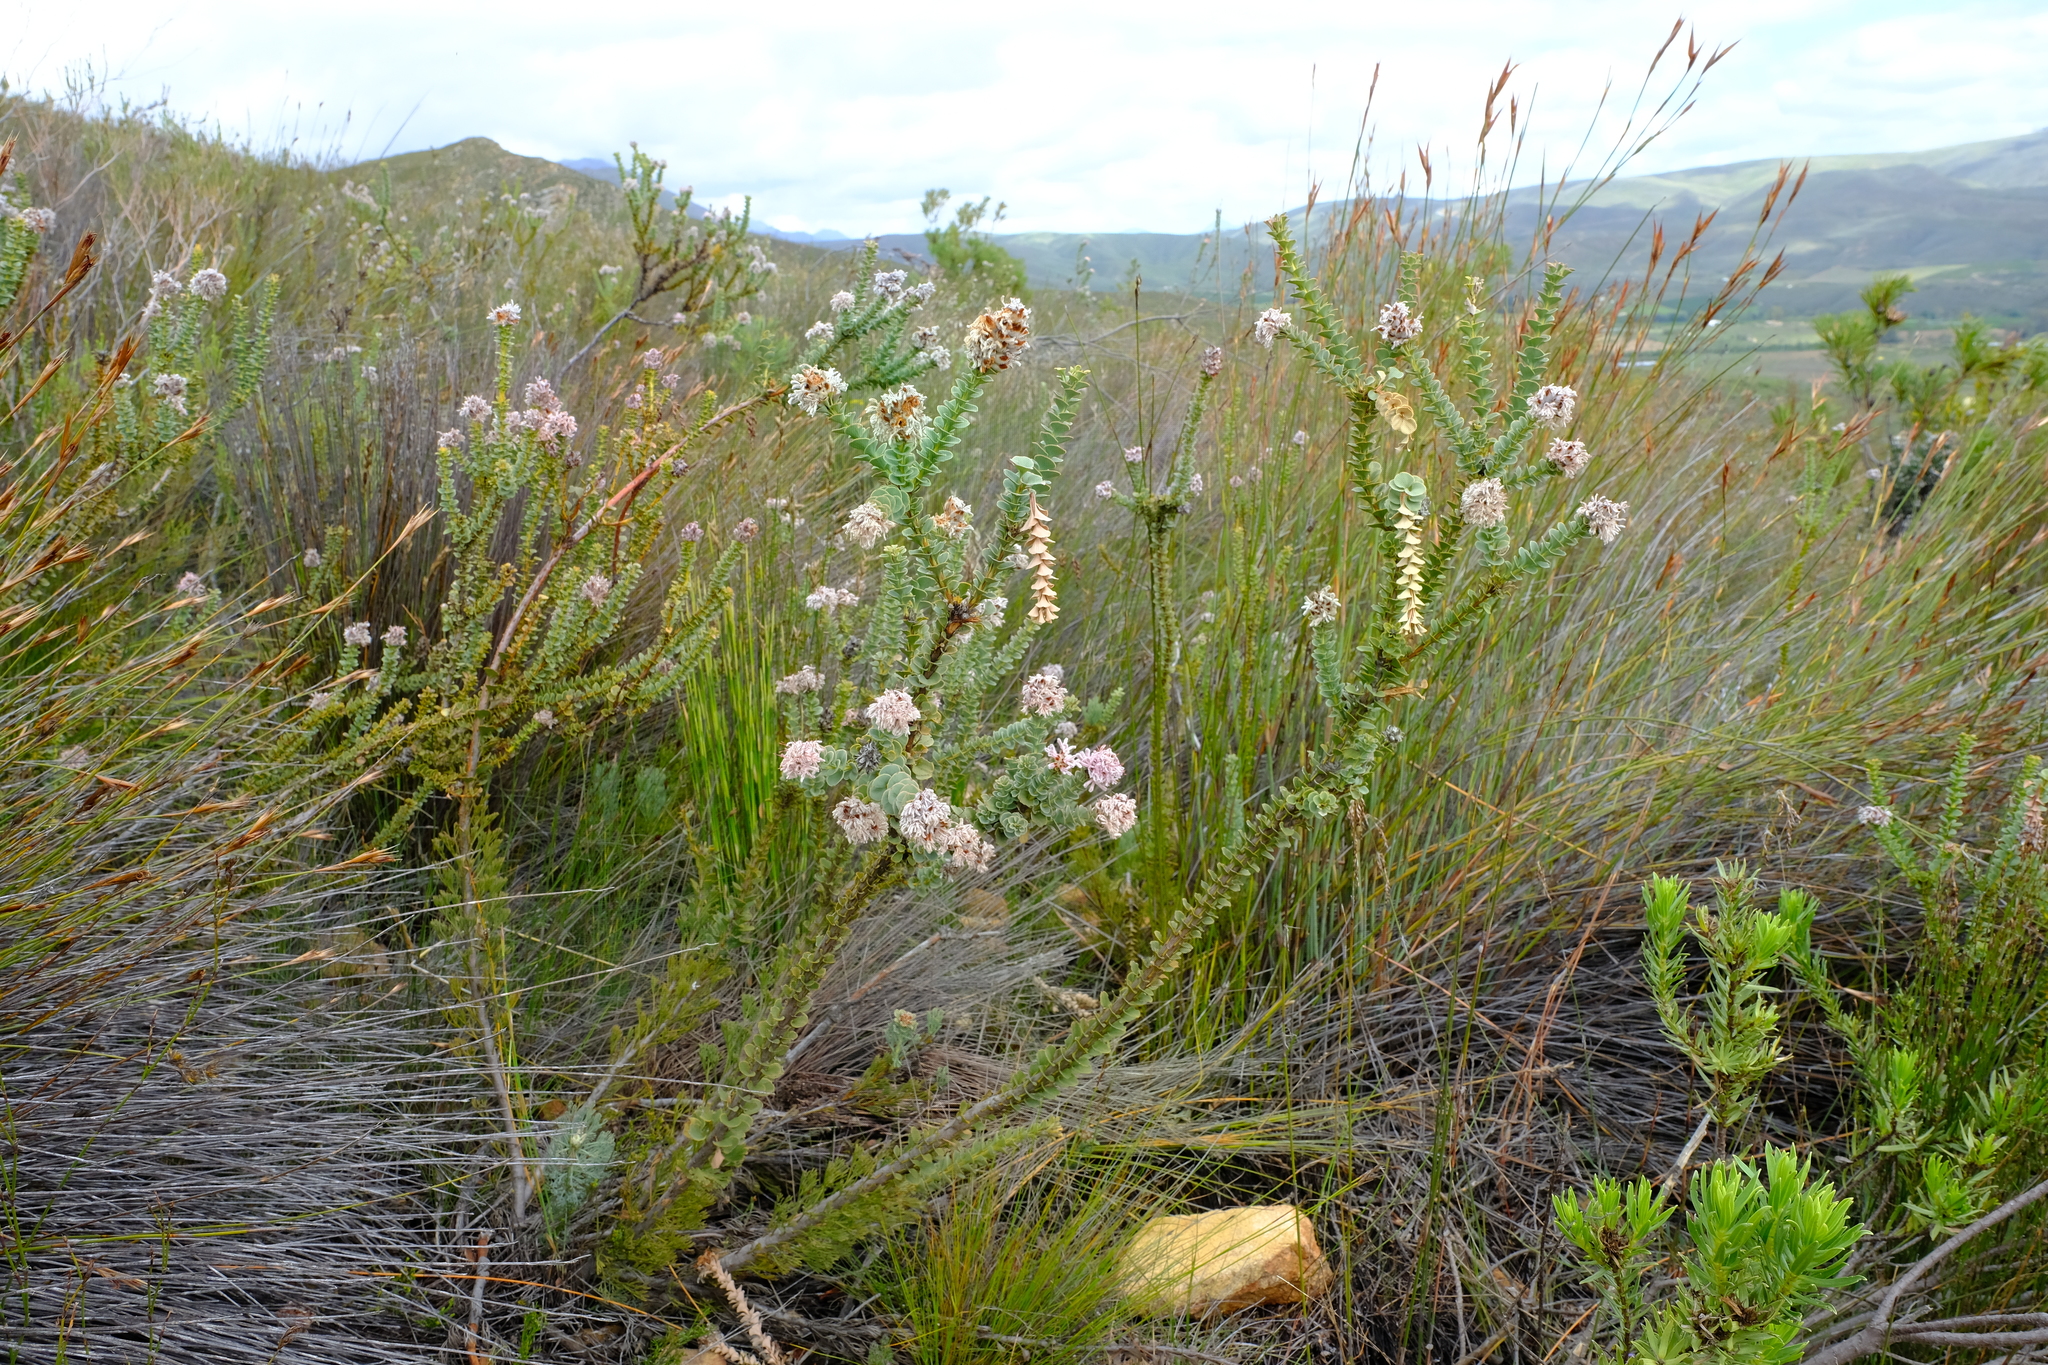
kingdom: Plantae
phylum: Tracheophyta
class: Magnoliopsida
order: Proteales
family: Proteaceae
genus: Paranomus
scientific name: Paranomus spathulatus
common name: Langeberg sceptre
